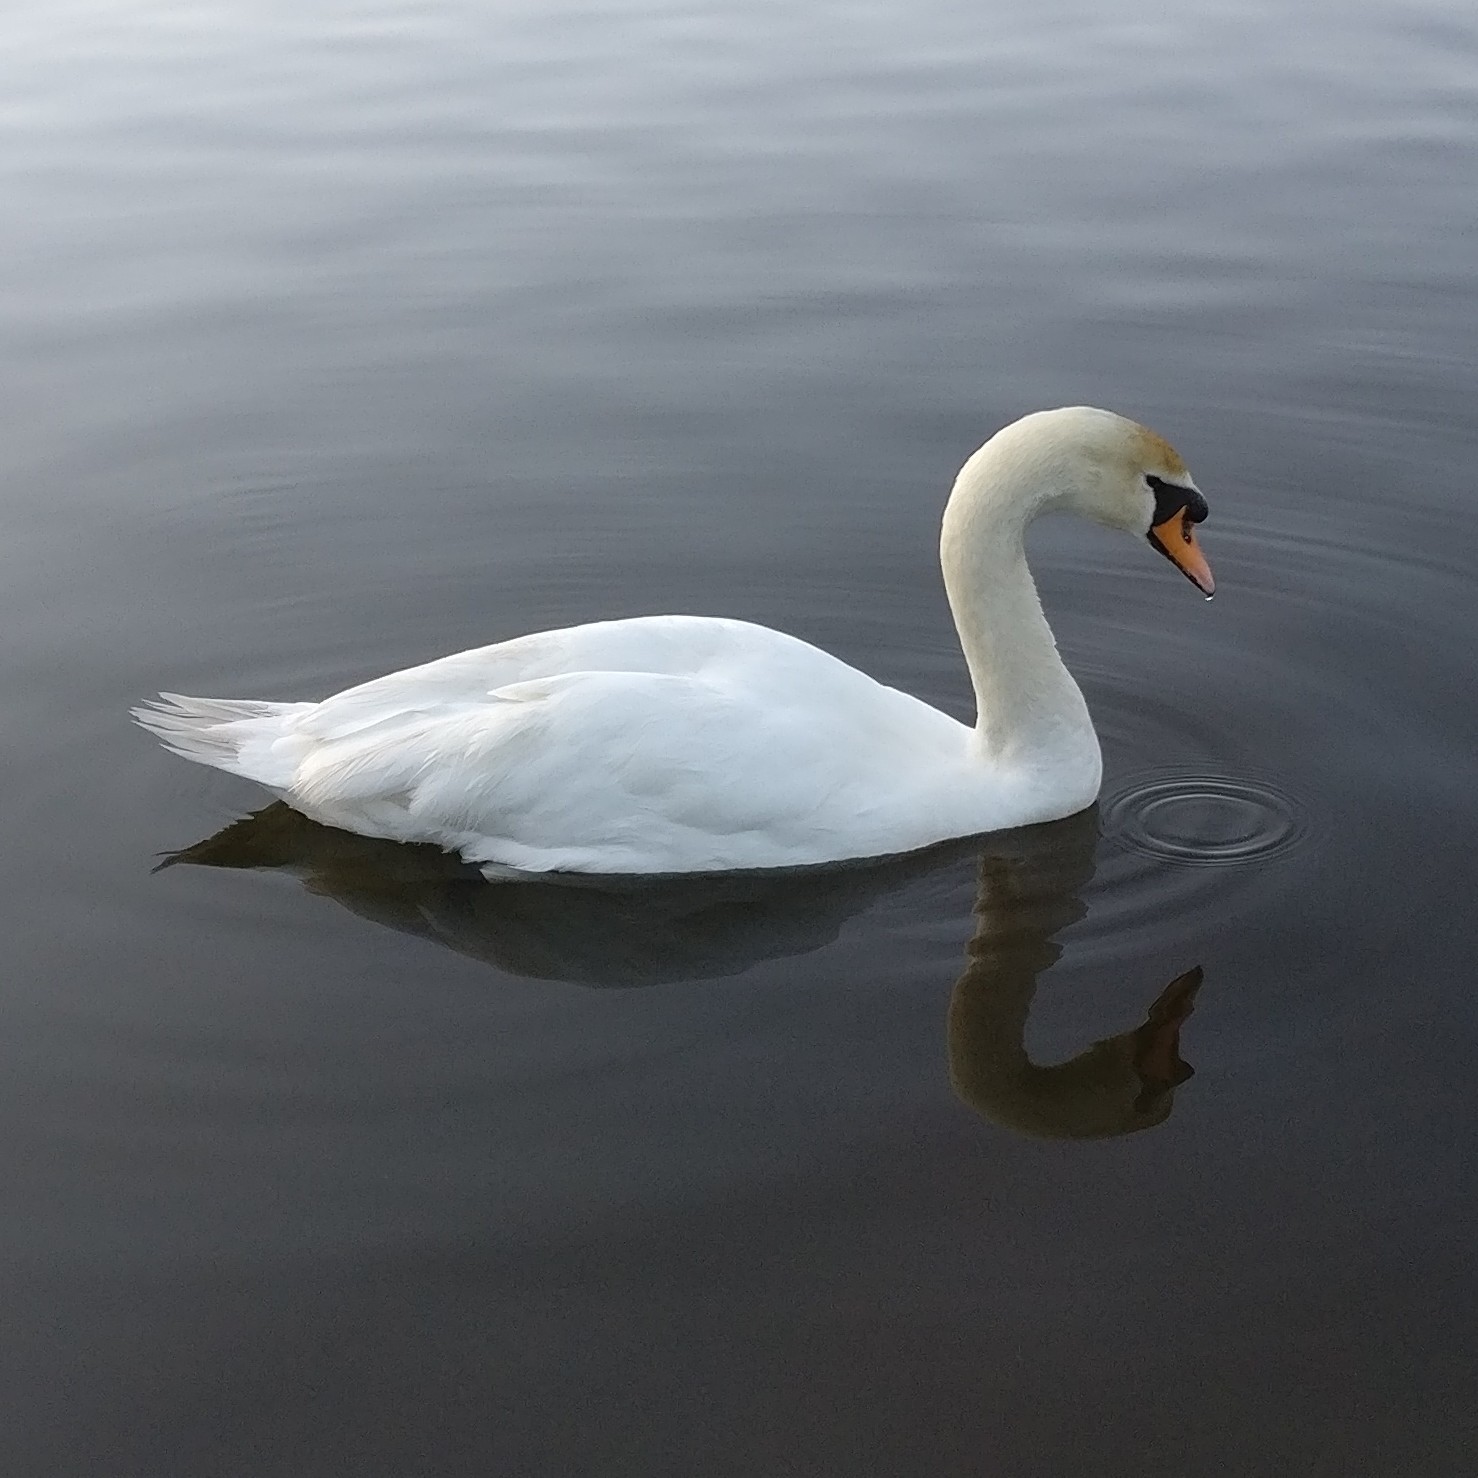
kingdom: Animalia
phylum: Chordata
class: Aves
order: Anseriformes
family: Anatidae
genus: Cygnus
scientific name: Cygnus olor
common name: Mute swan
